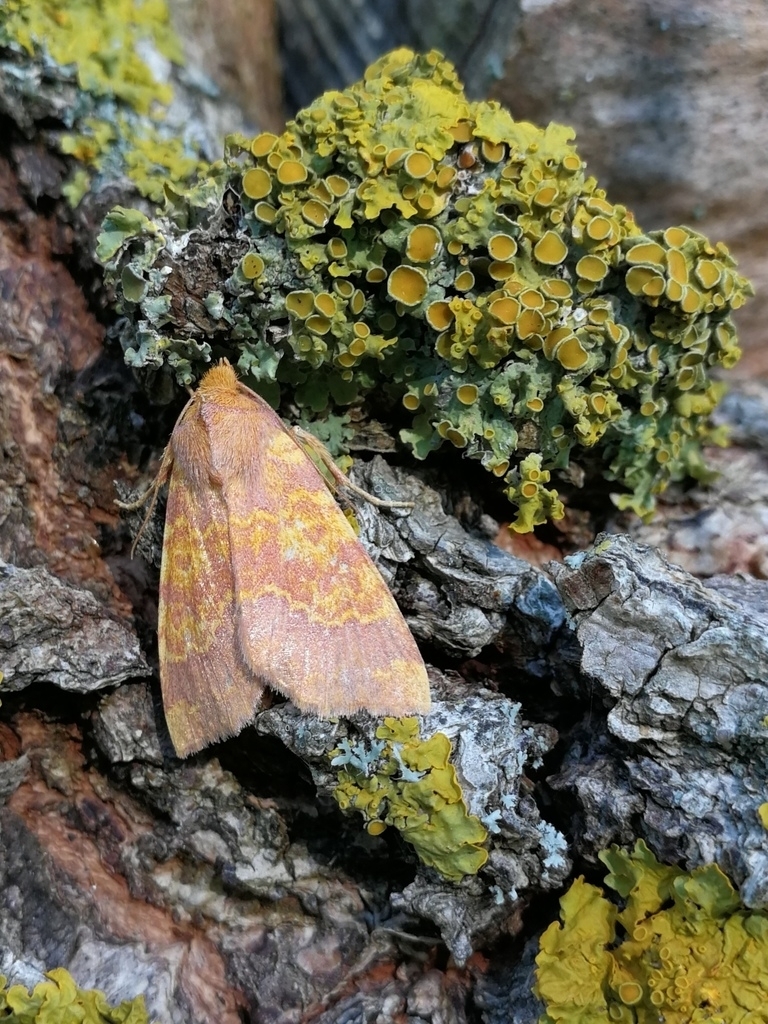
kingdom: Animalia
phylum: Arthropoda
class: Insecta
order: Lepidoptera
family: Noctuidae
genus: Tiliacea
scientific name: Tiliacea aurago
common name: Barred sallow
